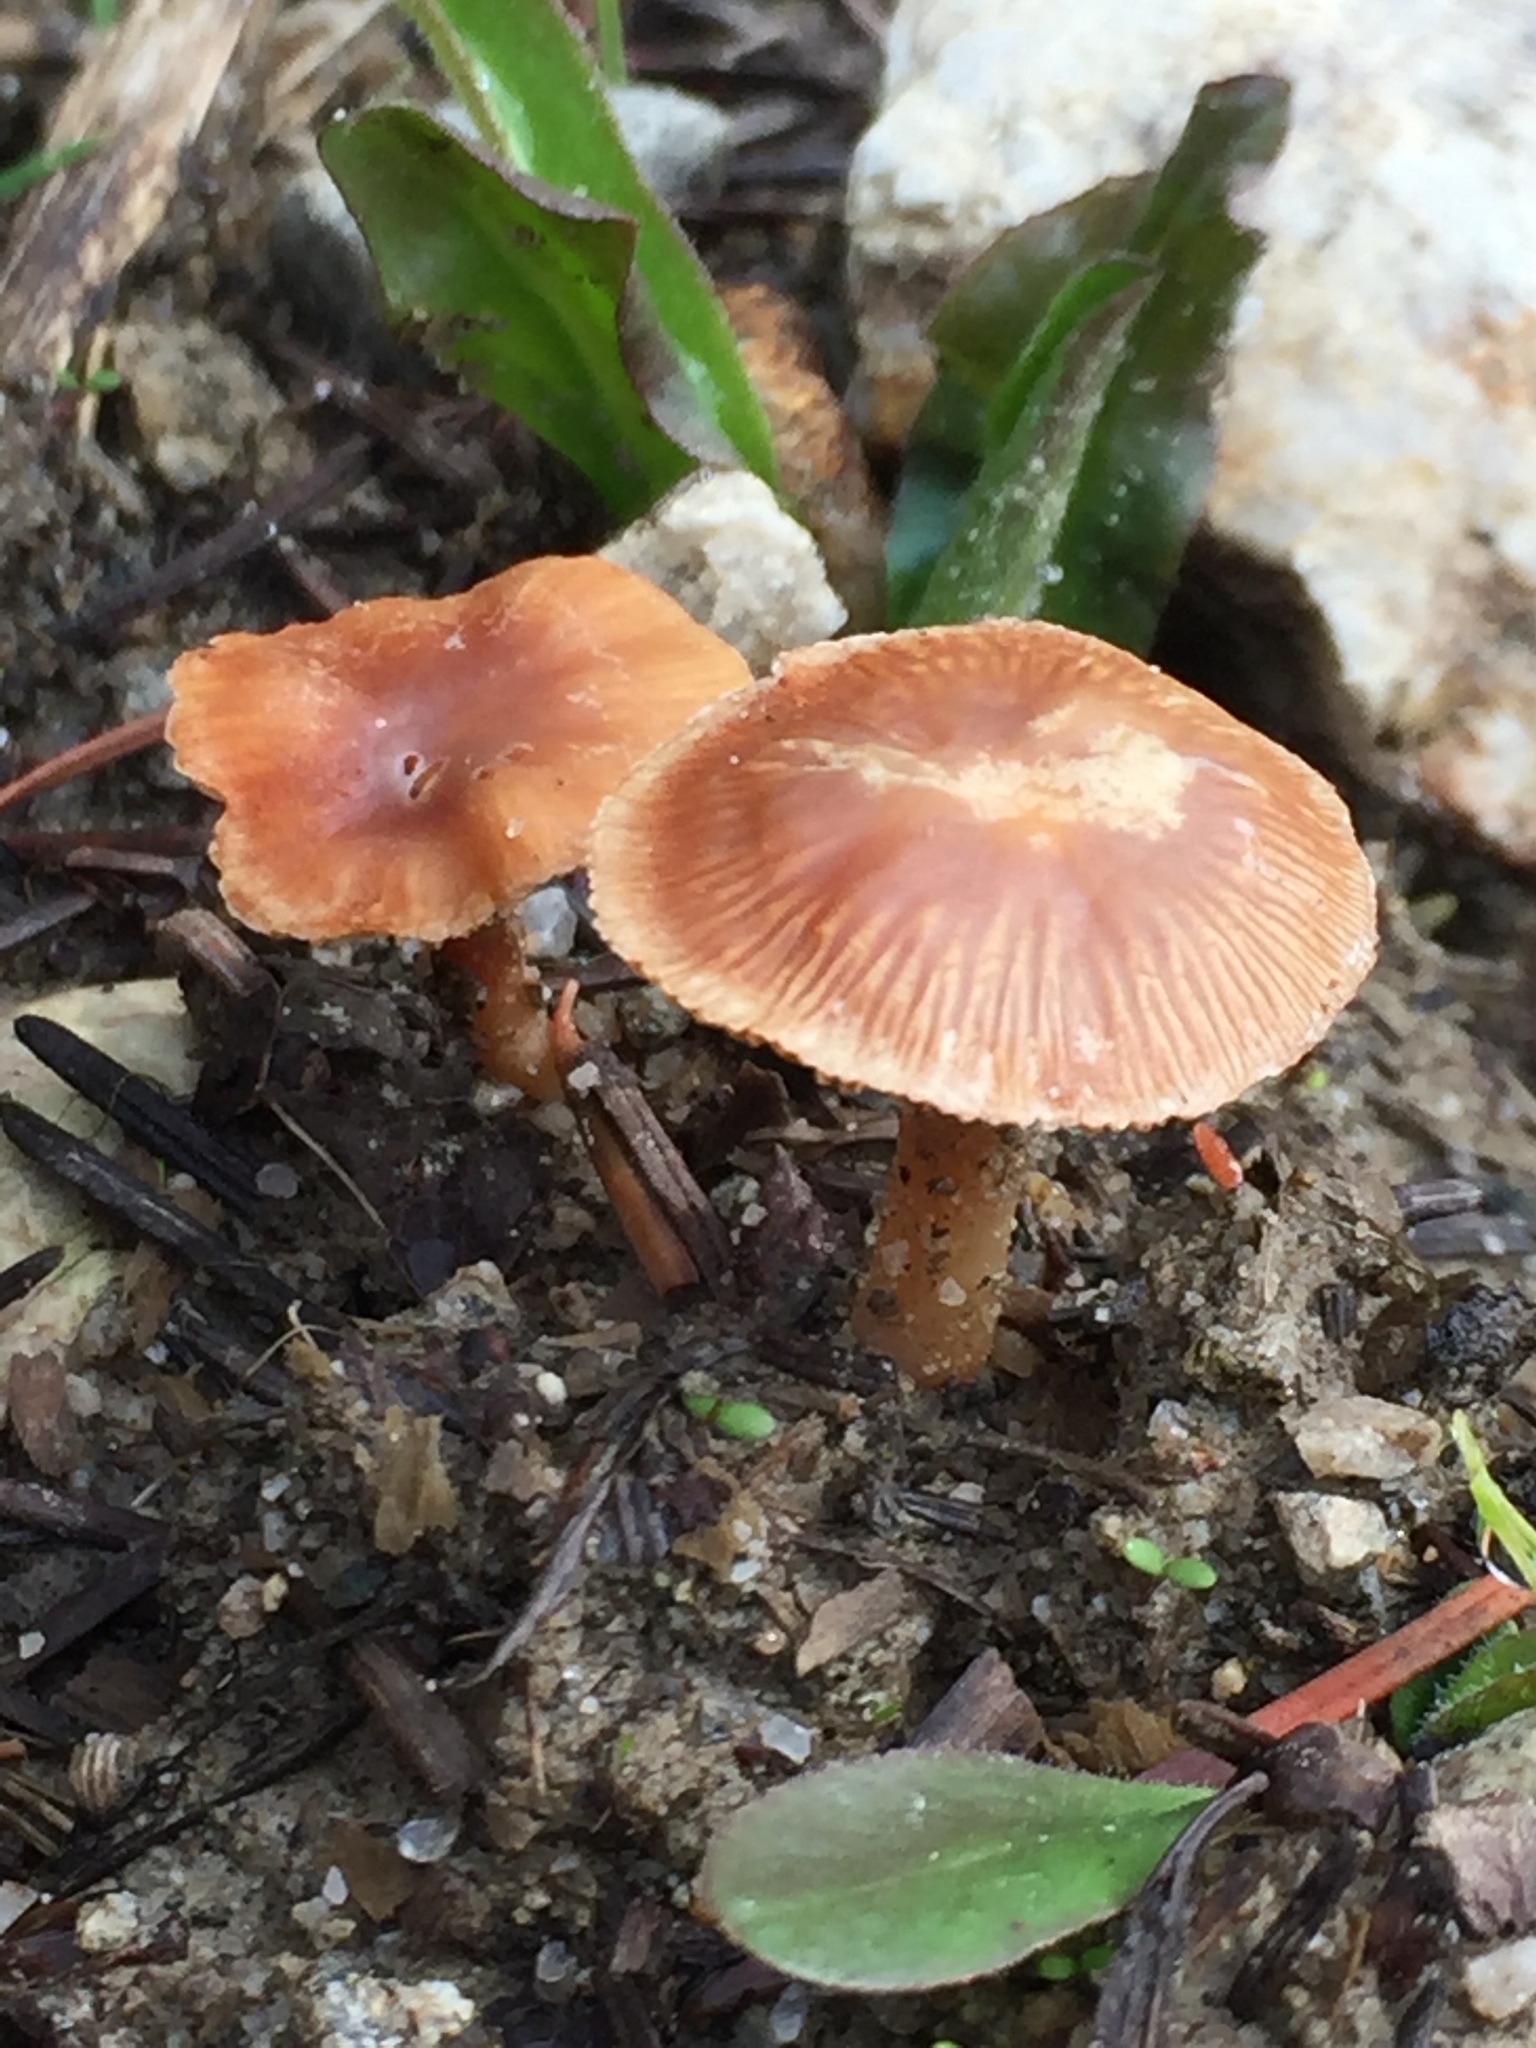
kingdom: Fungi
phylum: Basidiomycota
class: Agaricomycetes
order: Agaricales
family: Tubariaceae
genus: Tubaria
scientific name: Tubaria furfuracea
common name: Scurfy twiglet
